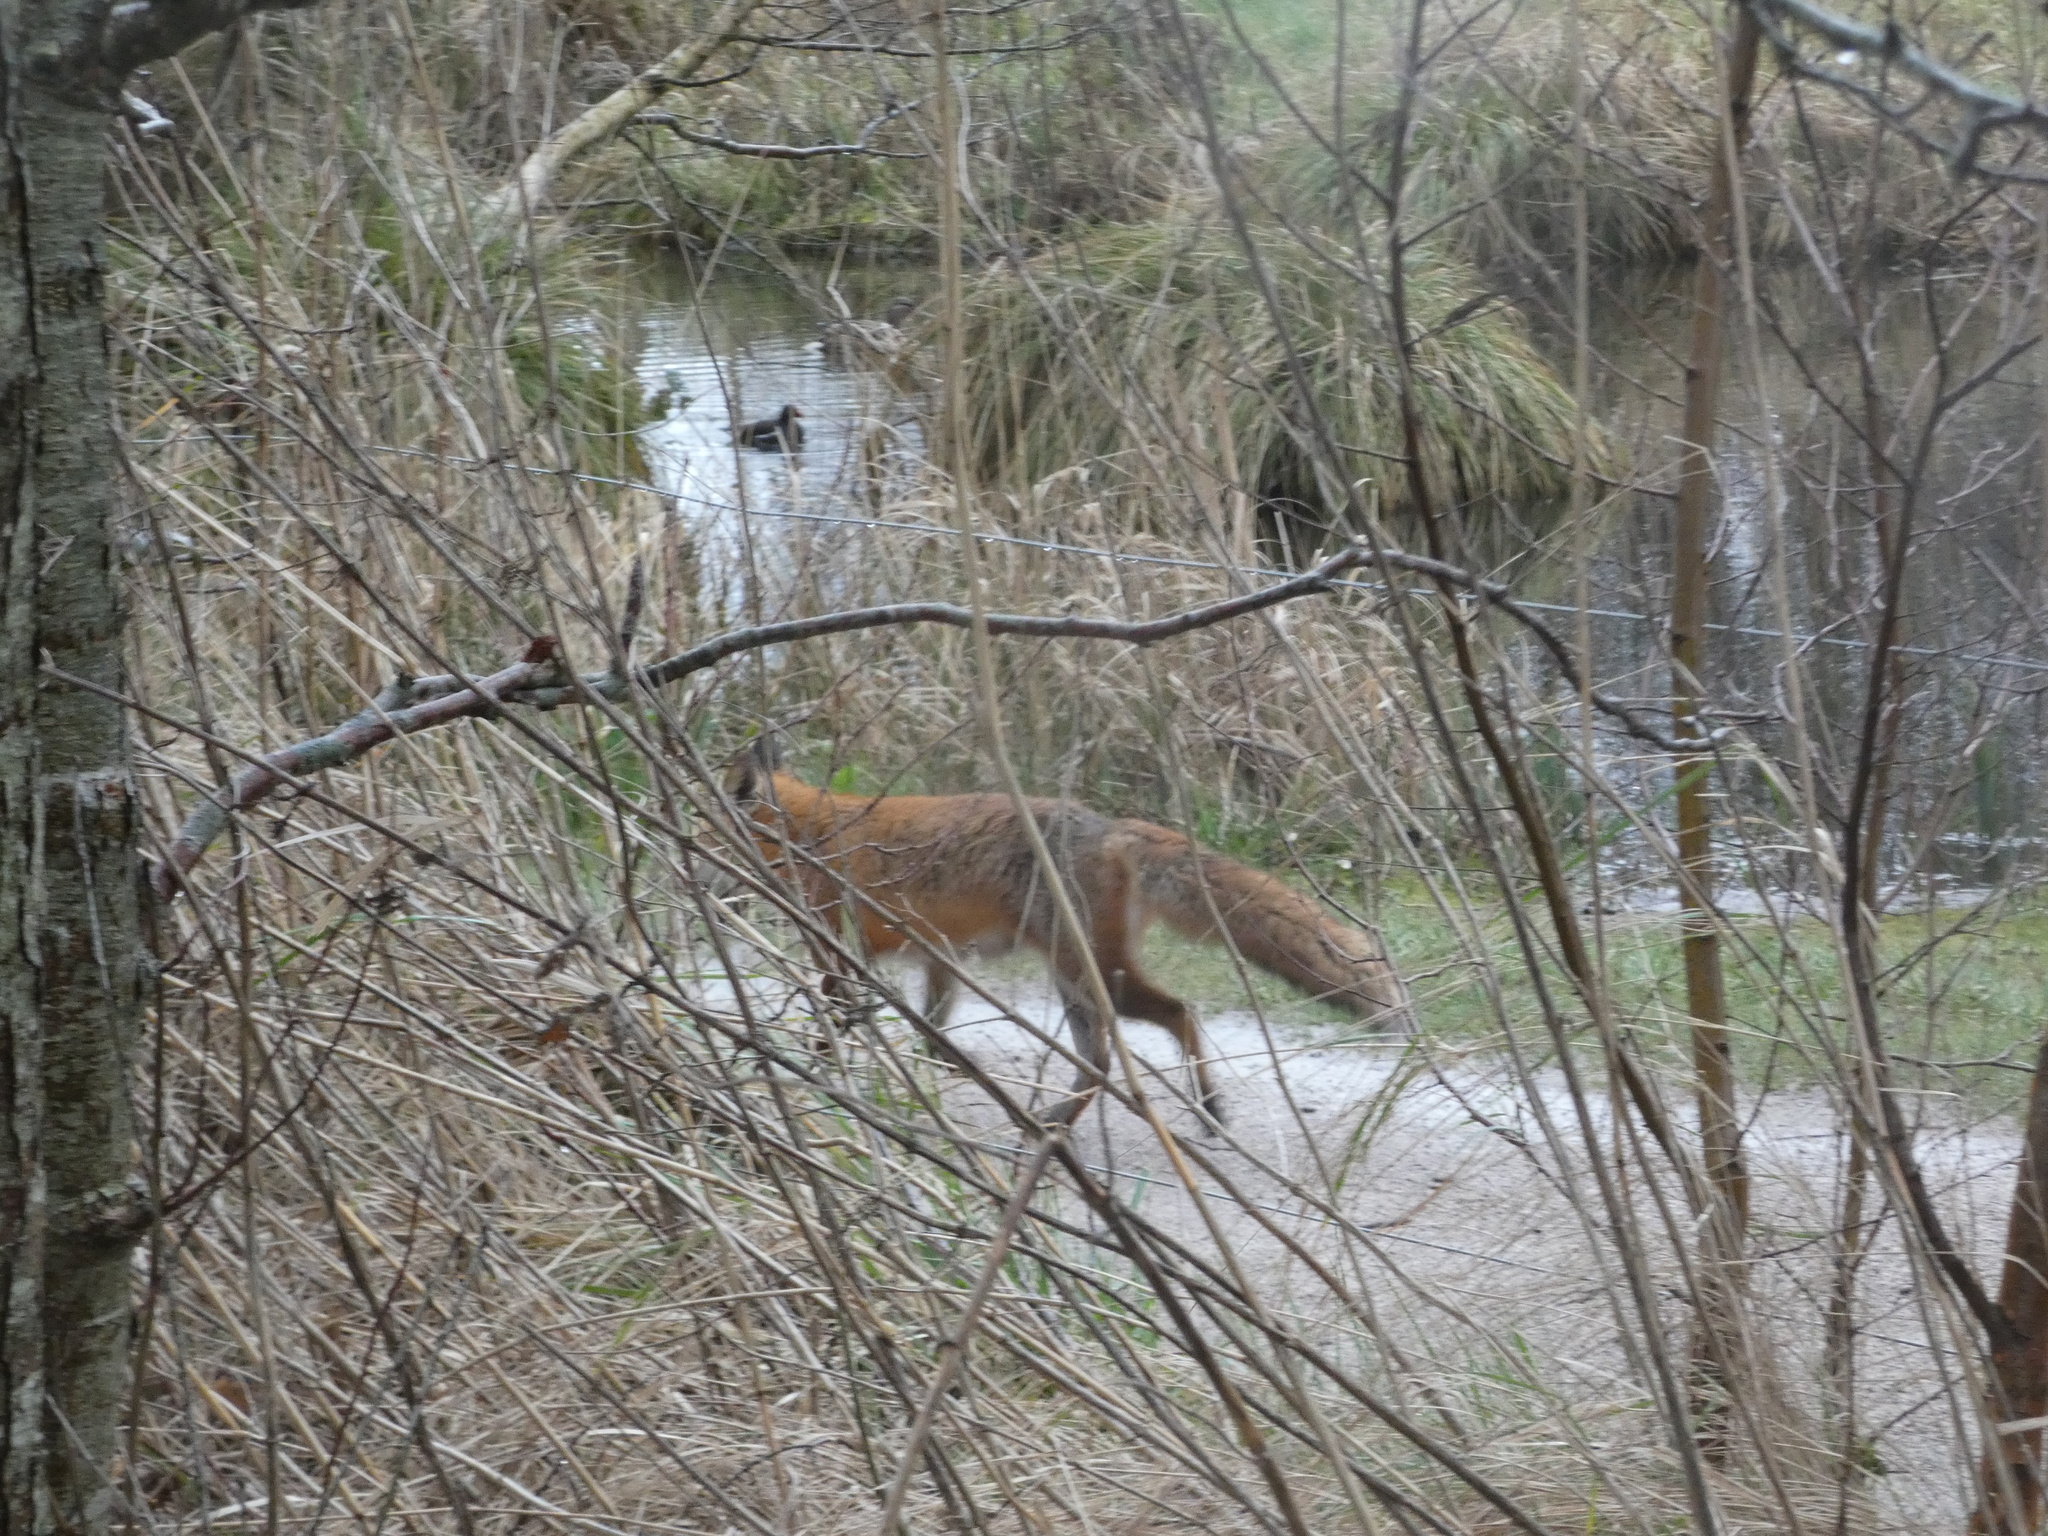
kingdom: Animalia
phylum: Chordata
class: Mammalia
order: Carnivora
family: Canidae
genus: Vulpes
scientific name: Vulpes vulpes
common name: Red fox
